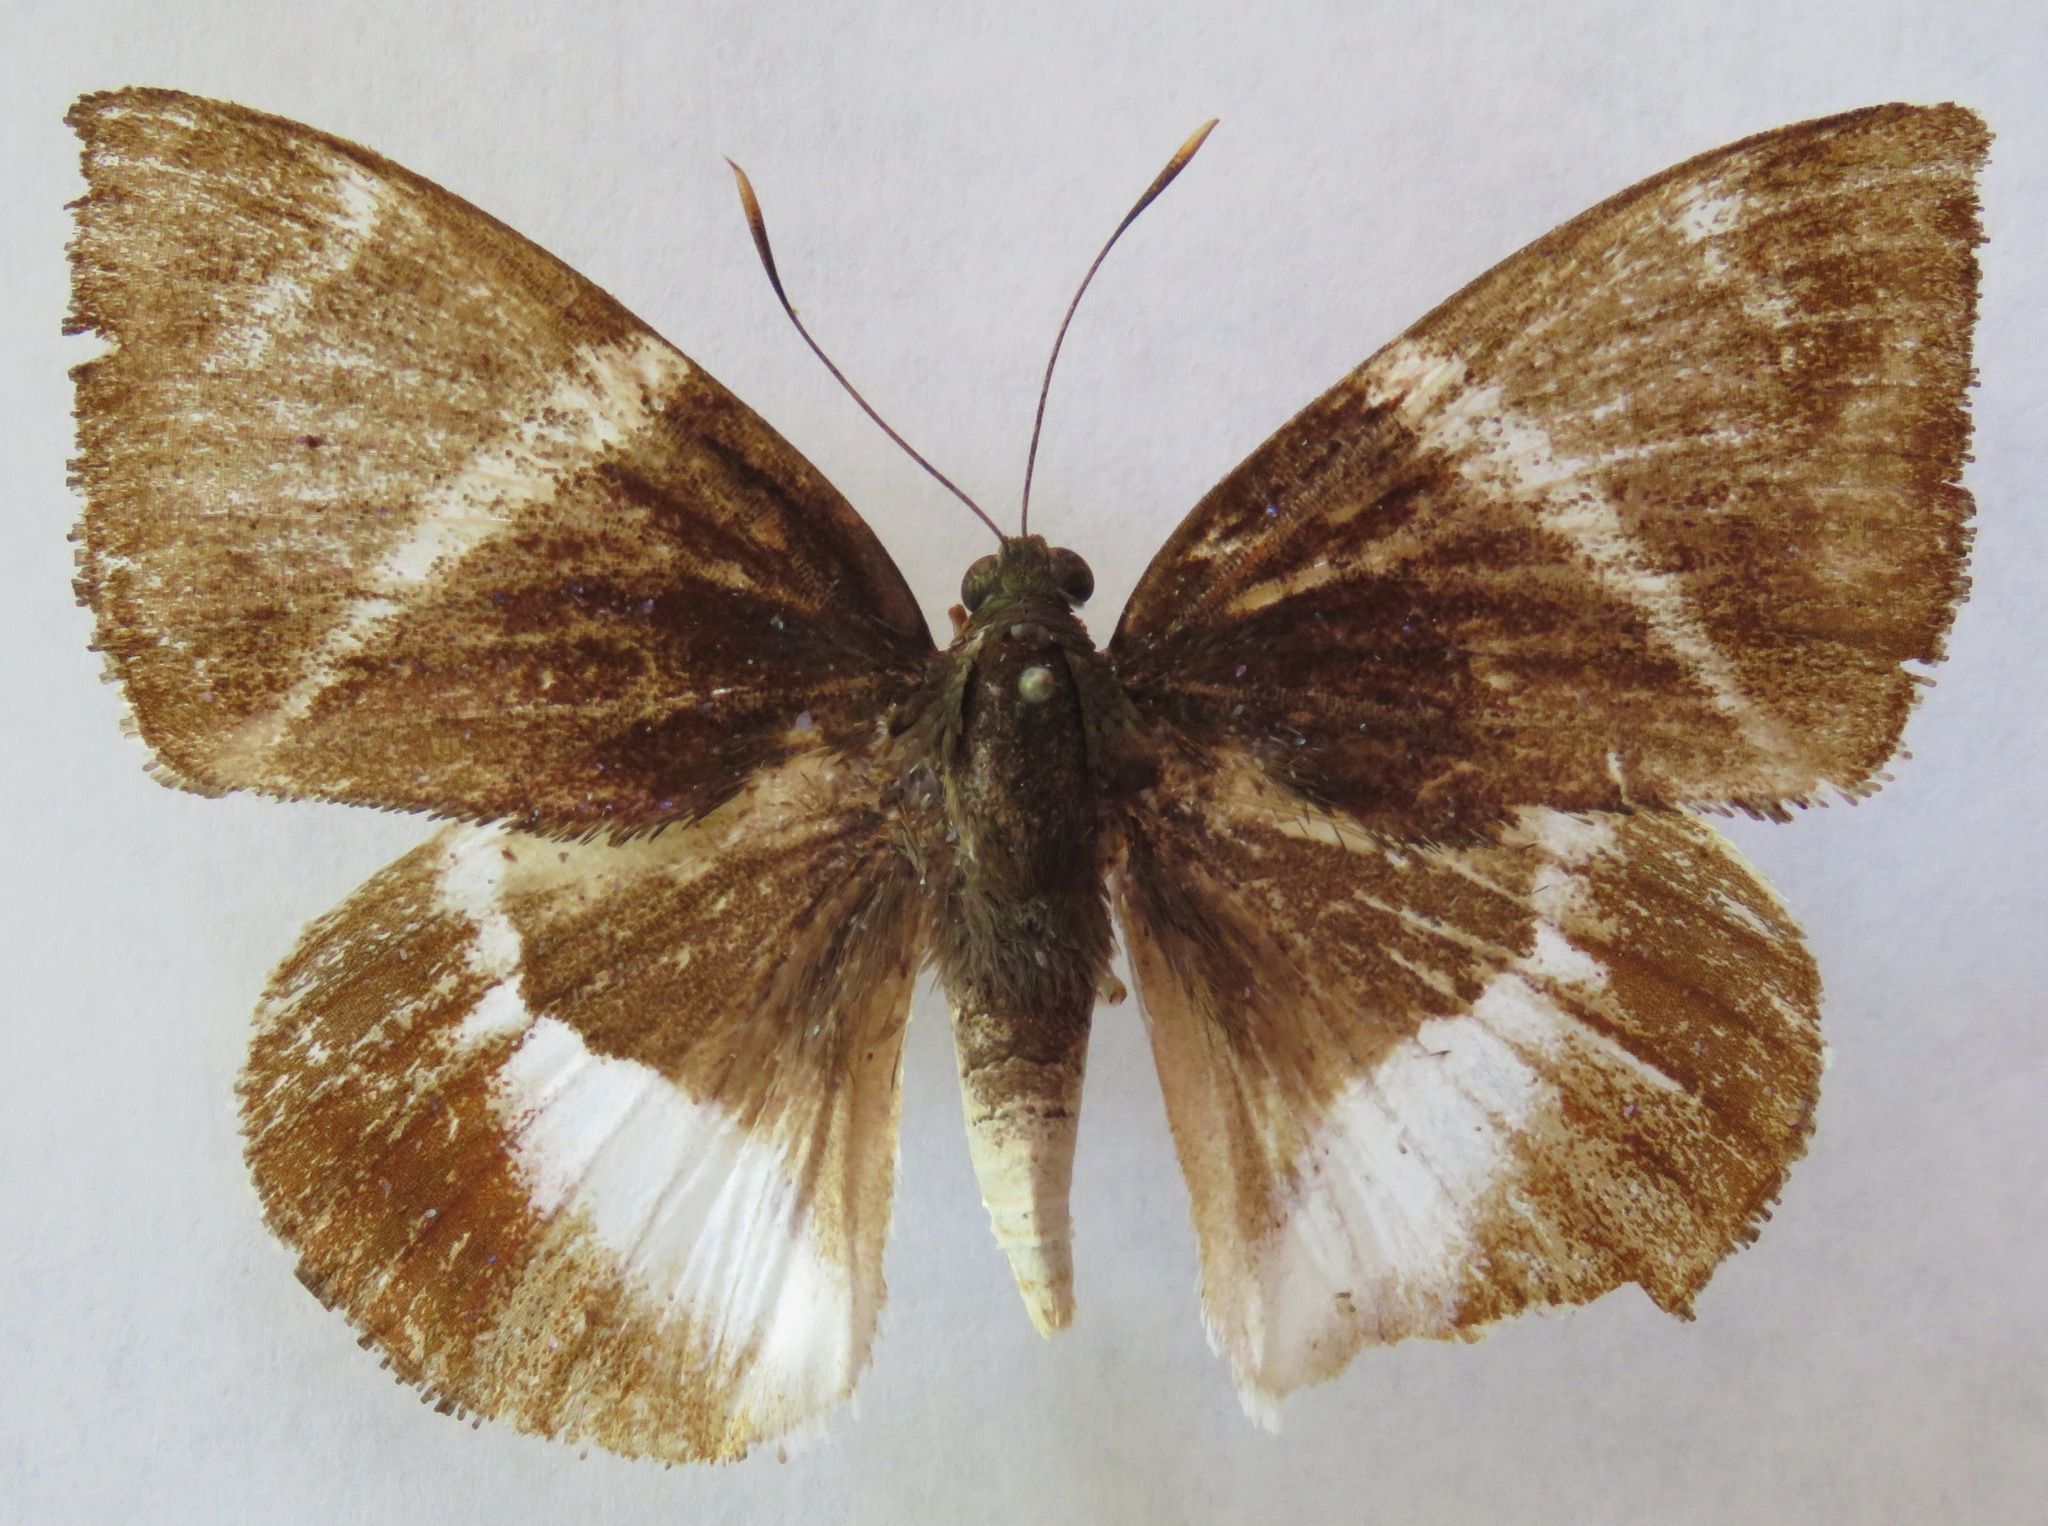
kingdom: Animalia
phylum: Arthropoda
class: Insecta
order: Lepidoptera
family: Castniidae
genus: Castniomera
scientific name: Castniomera atymnius
